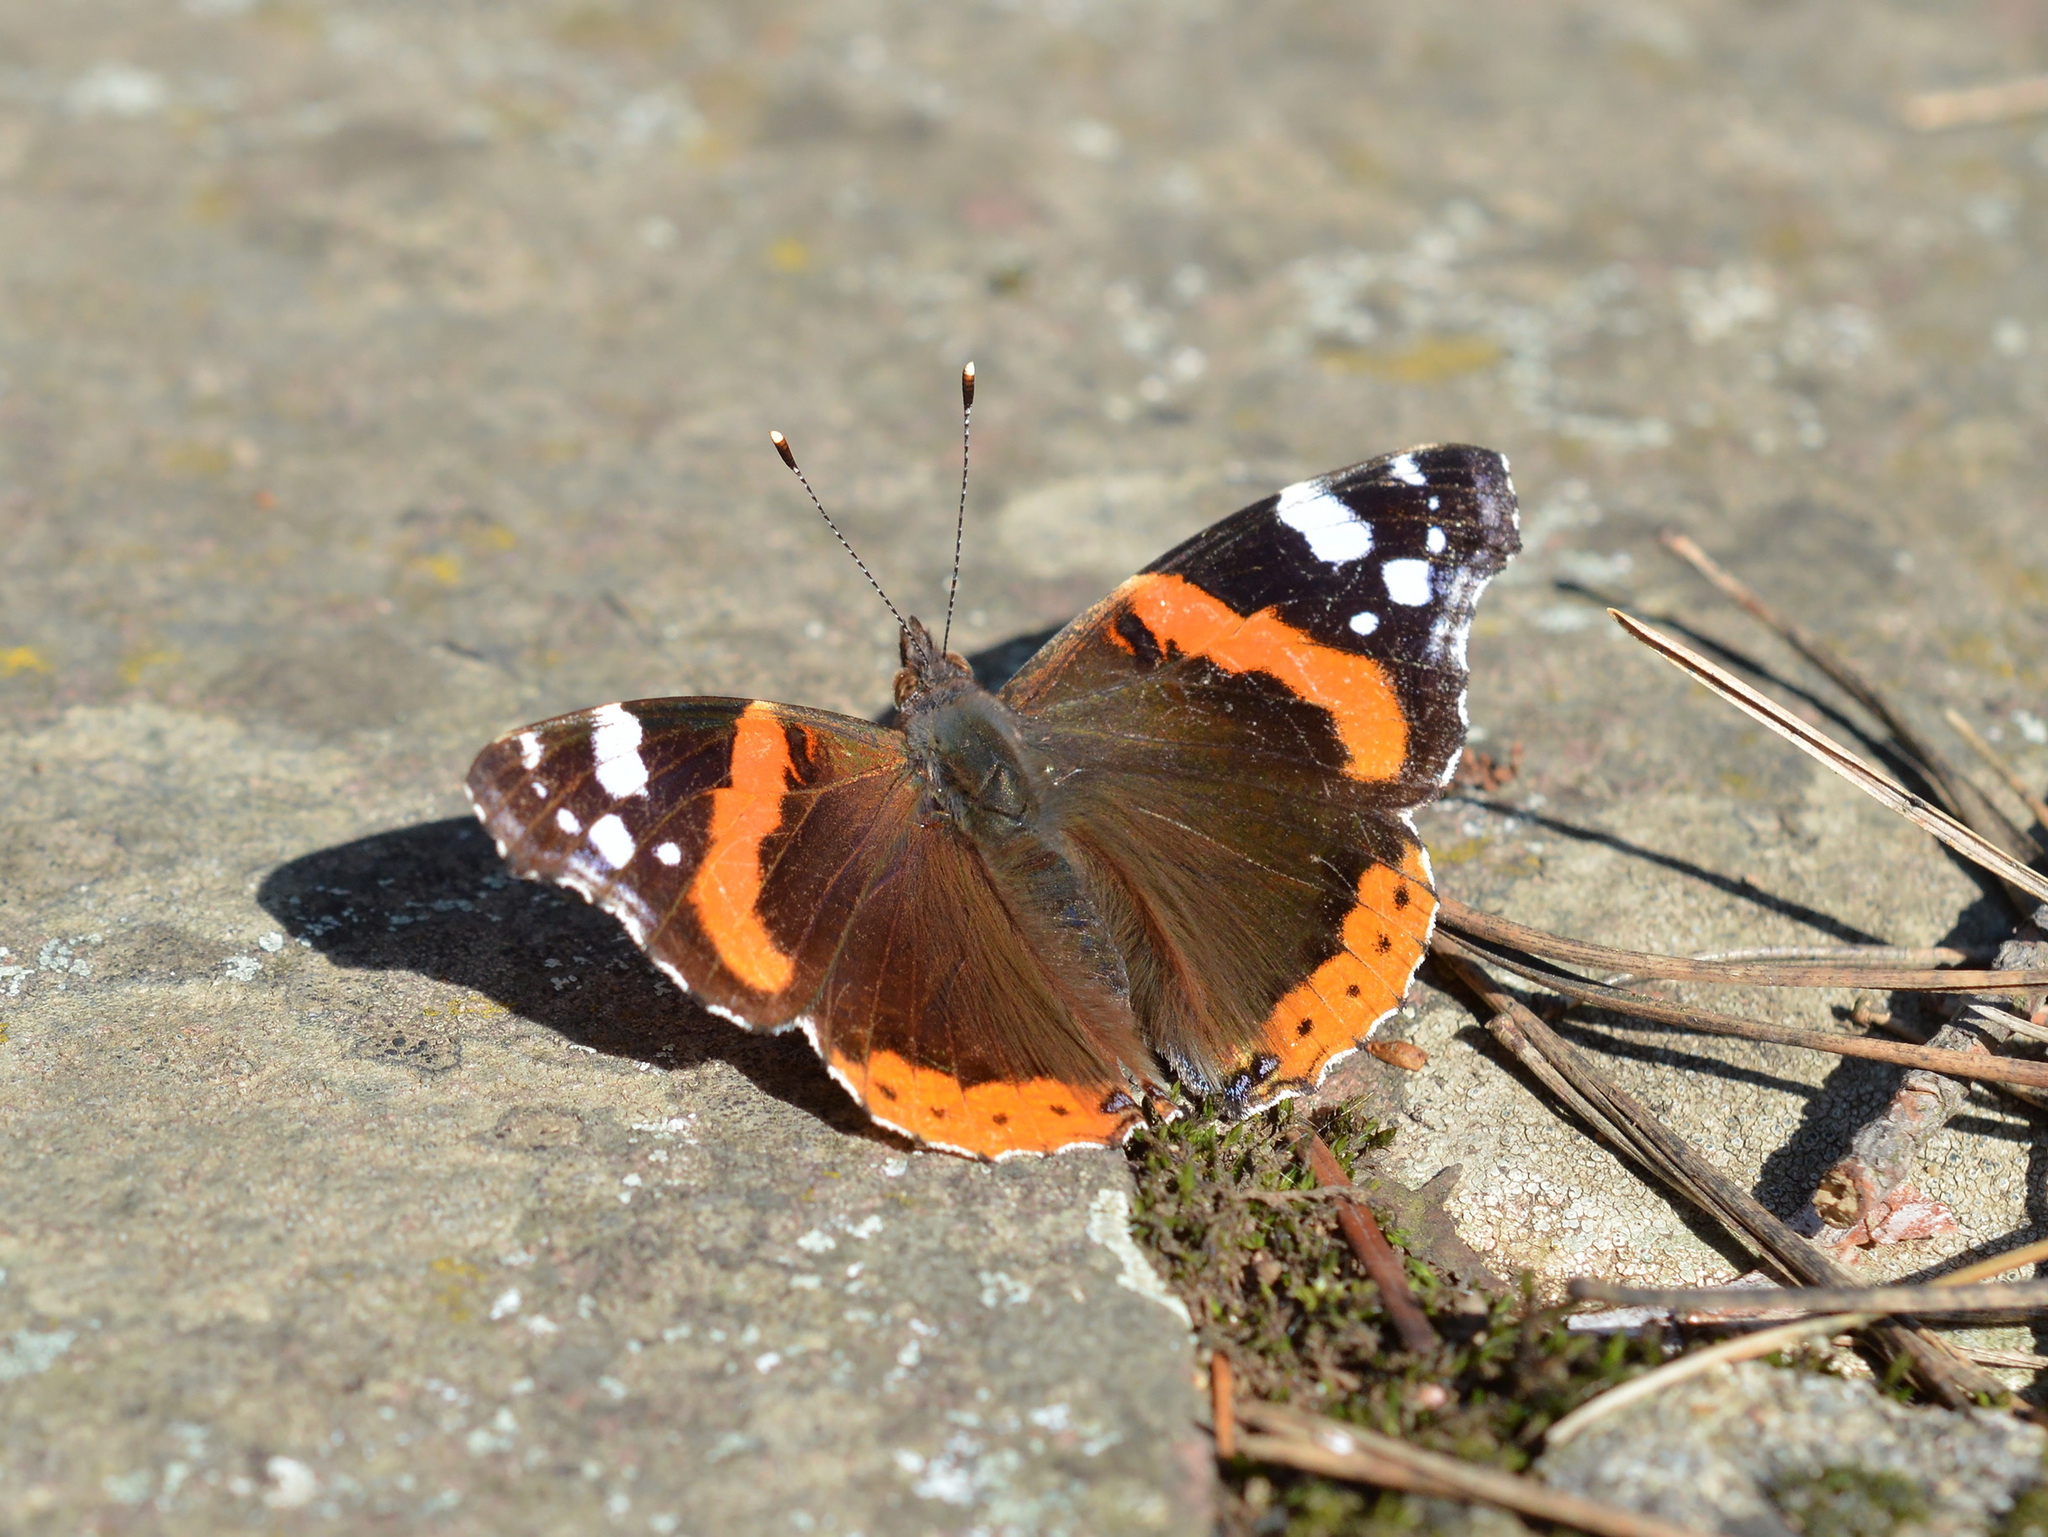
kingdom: Animalia
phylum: Arthropoda
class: Insecta
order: Lepidoptera
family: Nymphalidae
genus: Vanessa
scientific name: Vanessa atalanta
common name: Red admiral
